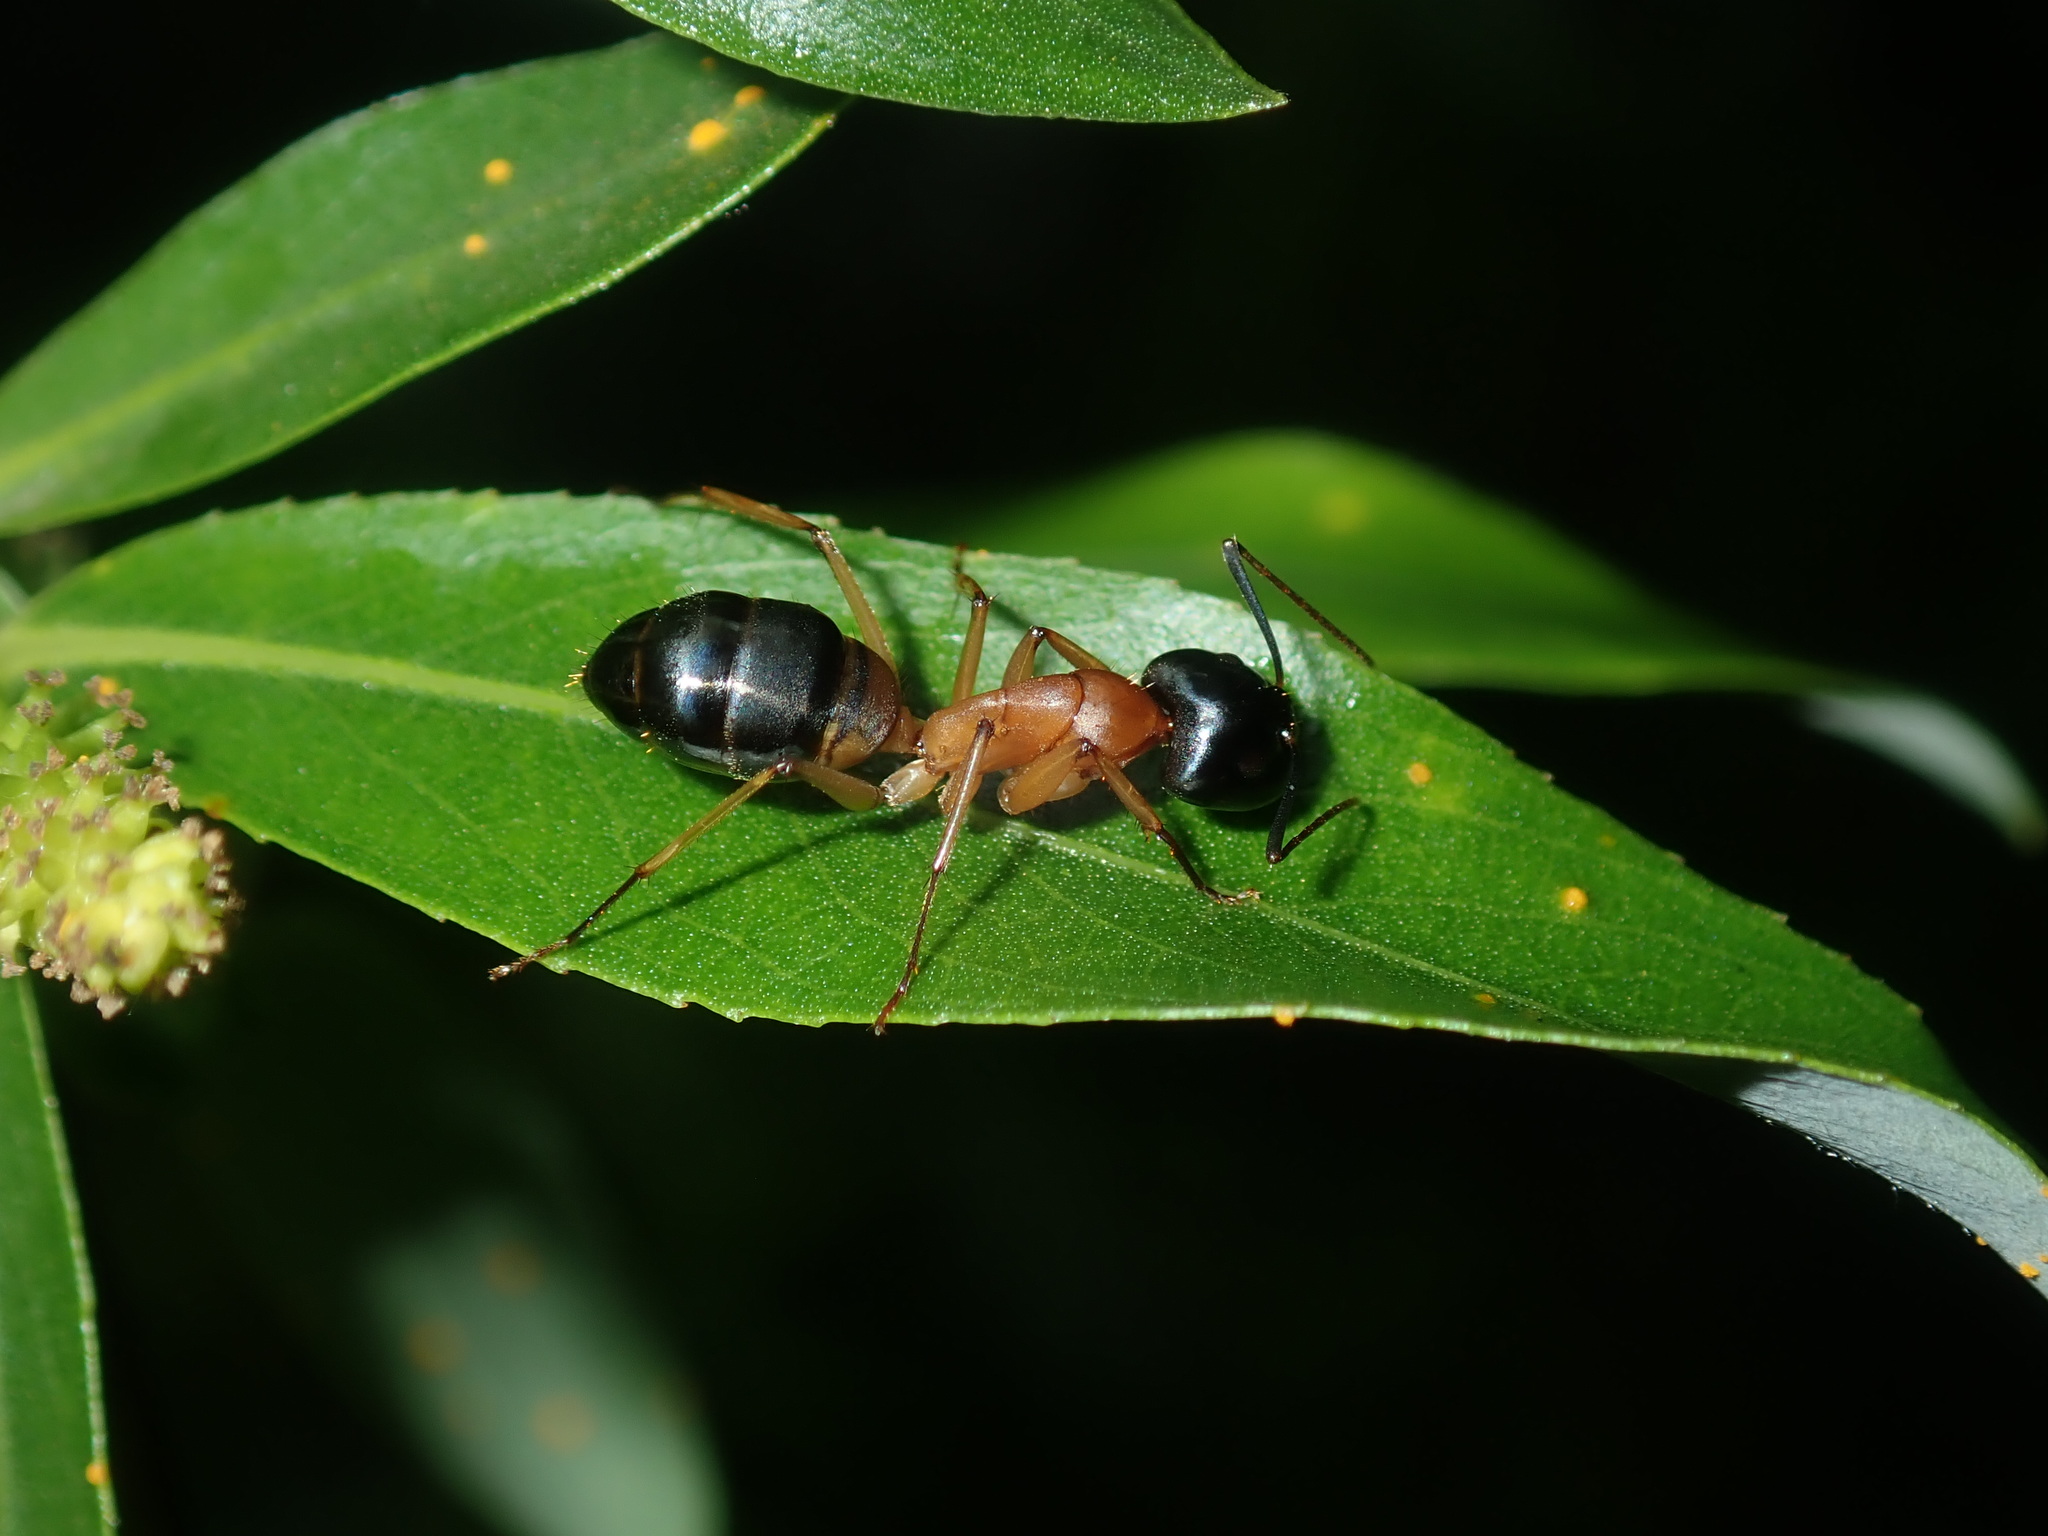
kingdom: Animalia
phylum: Arthropoda
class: Insecta
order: Hymenoptera
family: Formicidae
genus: Camponotus
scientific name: Camponotus consobrinus
